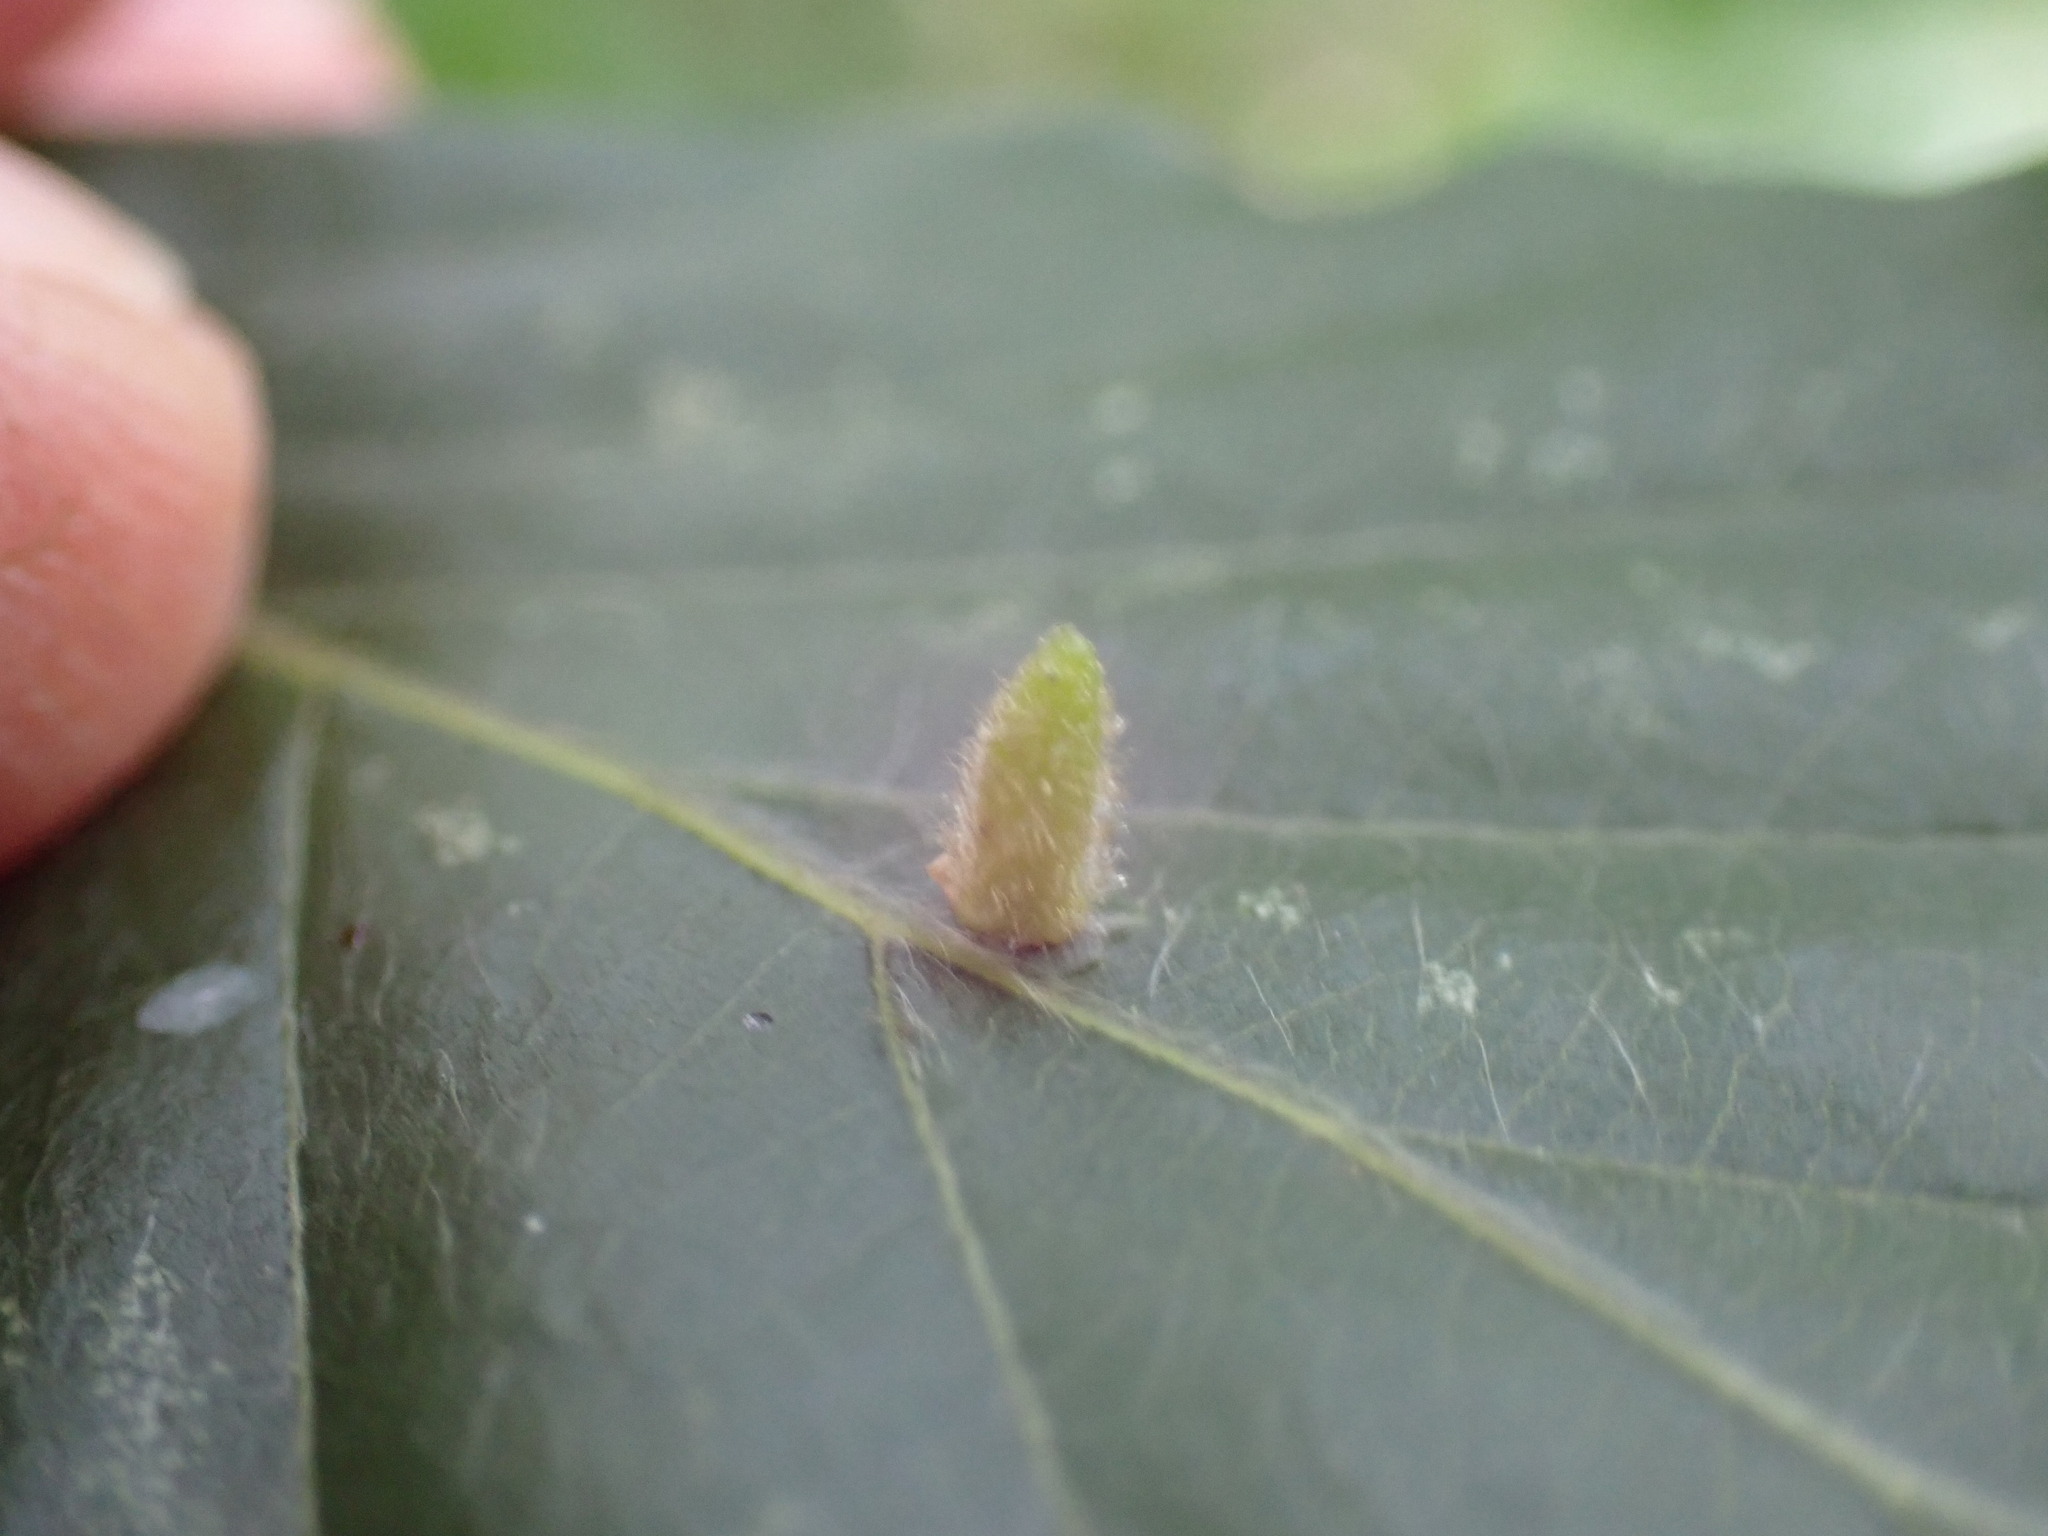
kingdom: Animalia
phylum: Arthropoda
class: Insecta
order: Diptera
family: Cecidomyiidae
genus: Hartigiola
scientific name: Hartigiola annulipes
